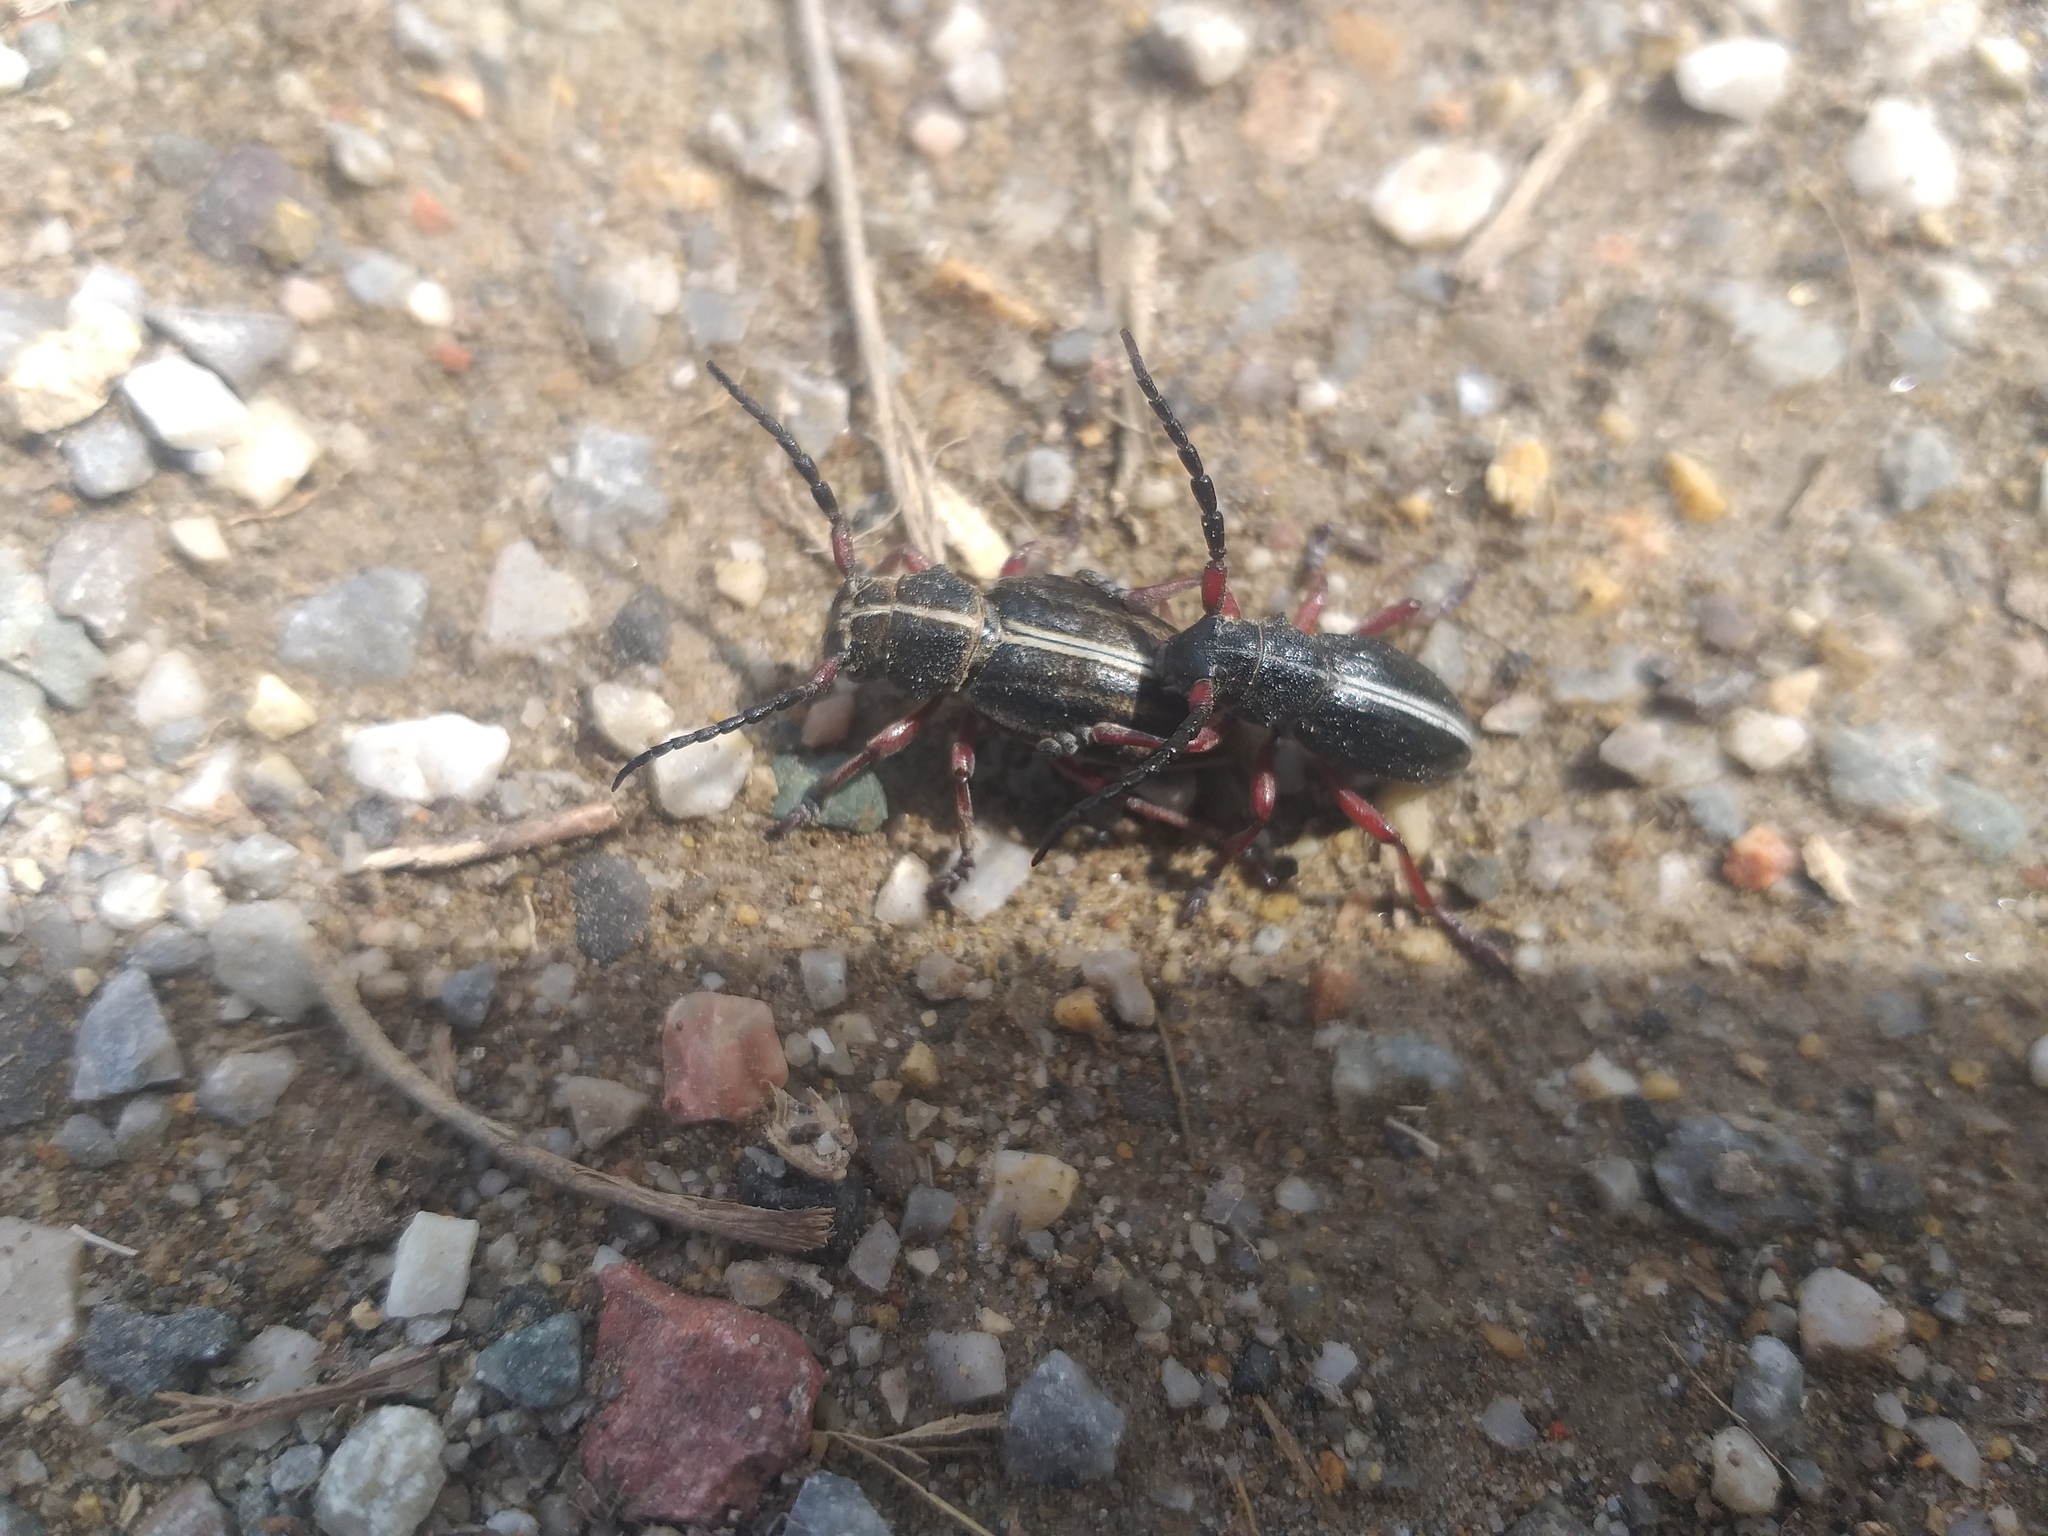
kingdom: Animalia
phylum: Arthropoda
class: Insecta
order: Coleoptera
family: Cerambycidae
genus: Dorcadion
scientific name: Dorcadion pedestre
